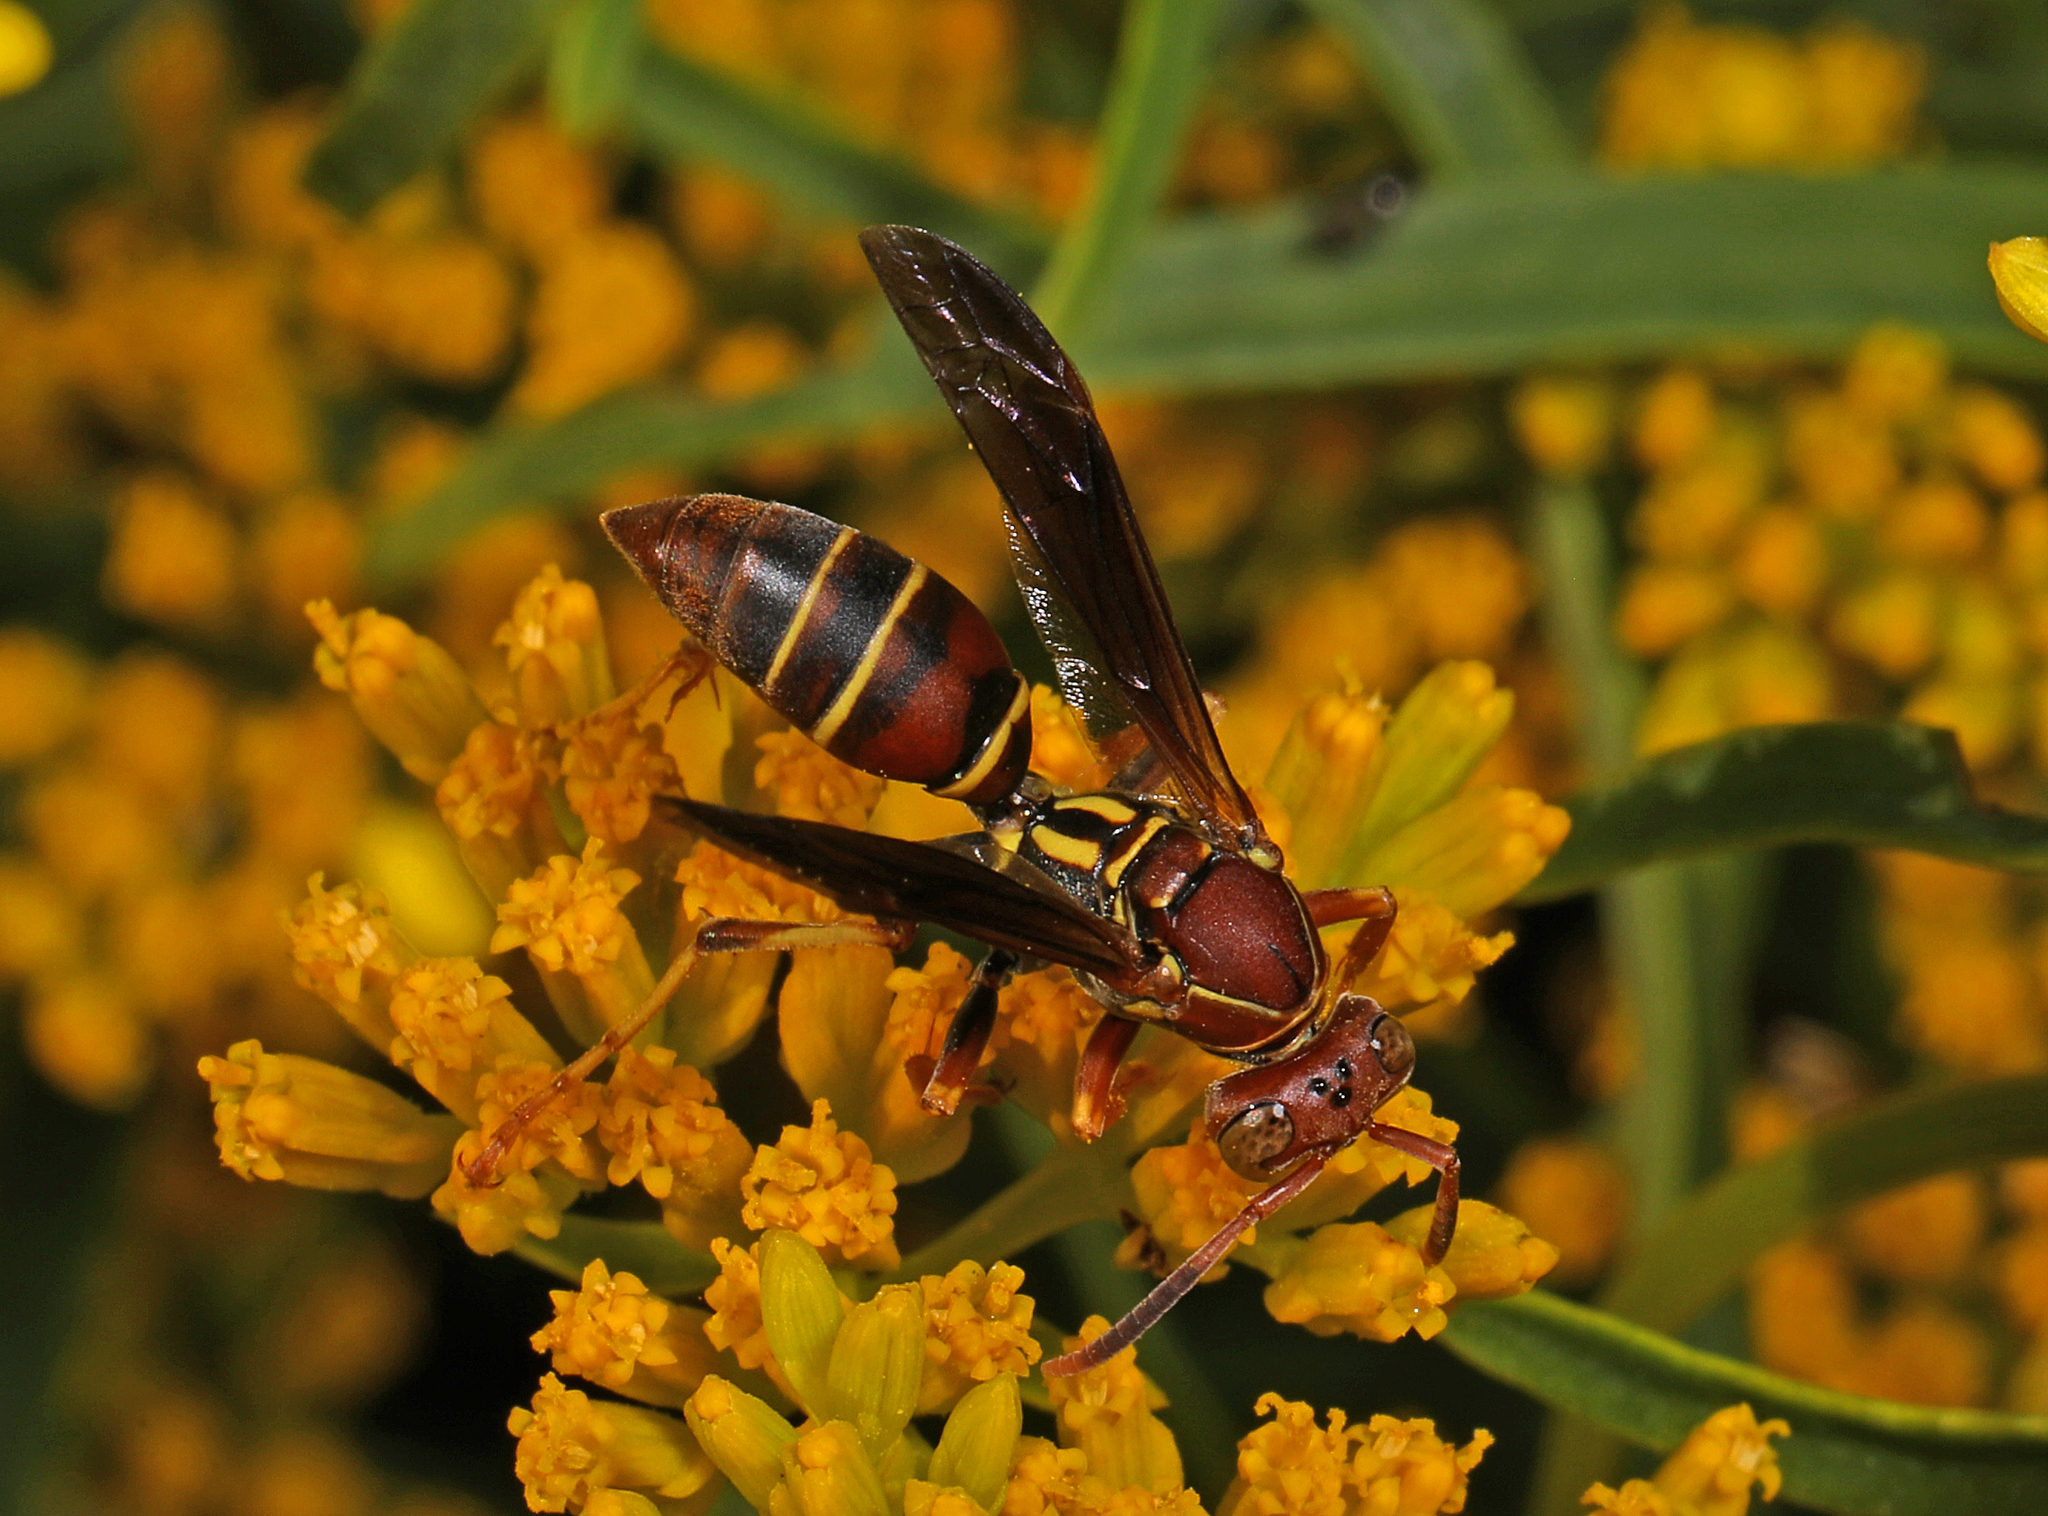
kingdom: Animalia
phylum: Arthropoda
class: Insecta
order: Hymenoptera
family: Eumenidae
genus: Polistes
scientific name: Polistes dorsalis
